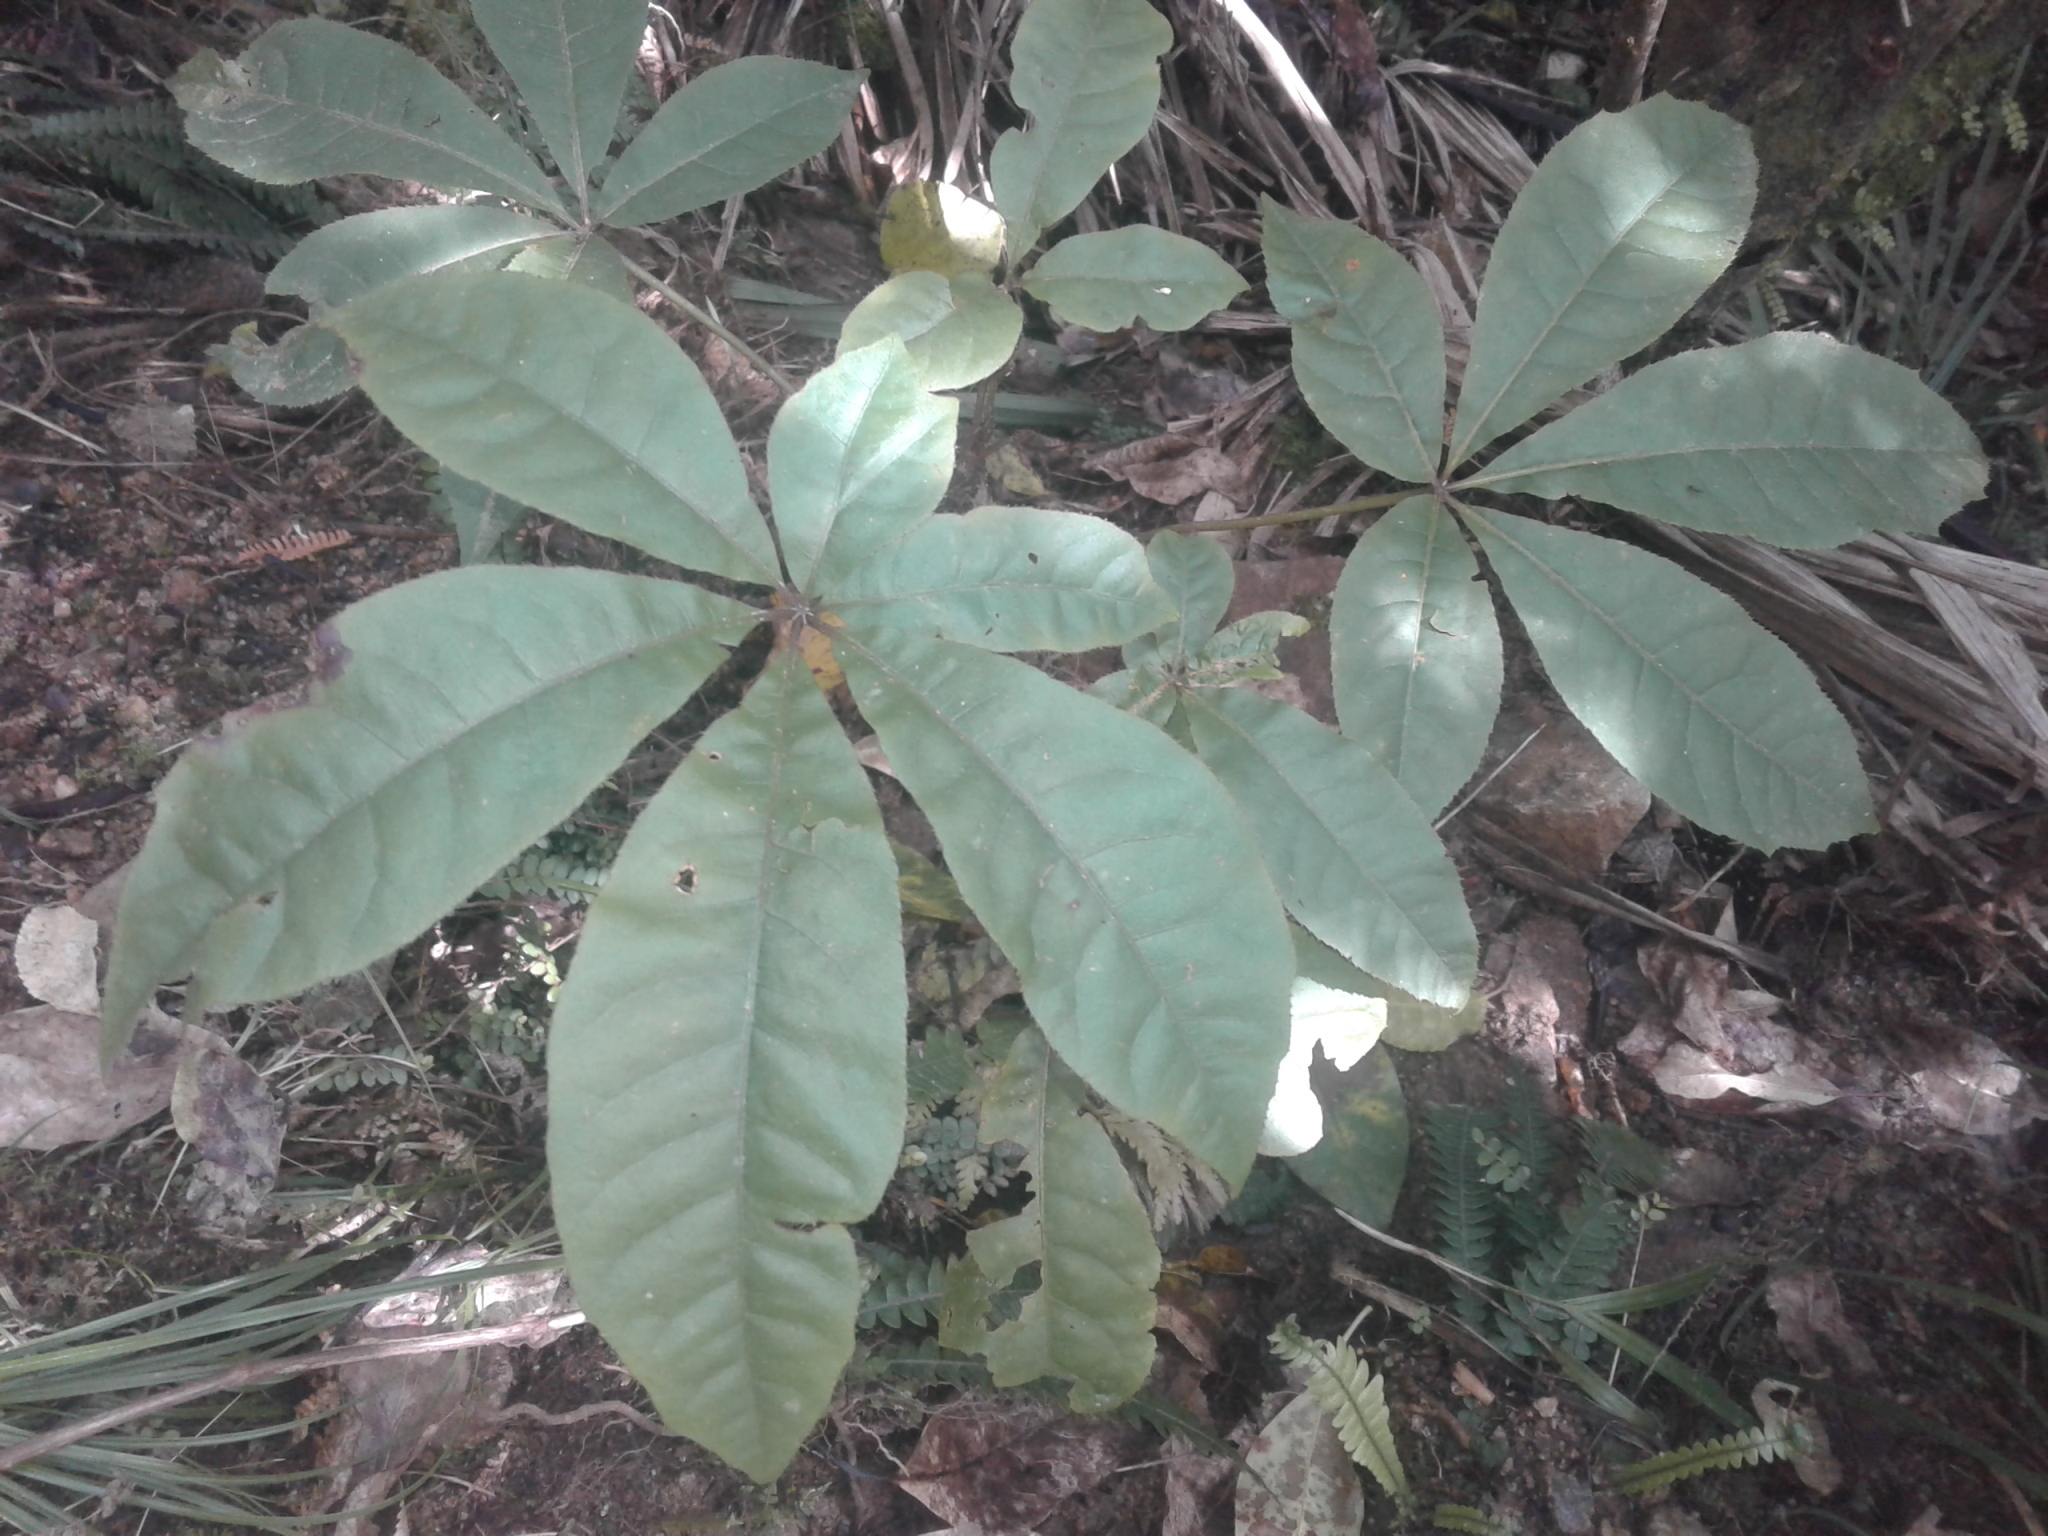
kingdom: Plantae
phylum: Tracheophyta
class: Magnoliopsida
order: Apiales
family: Araliaceae
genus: Schefflera
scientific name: Schefflera digitata
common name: Pate
